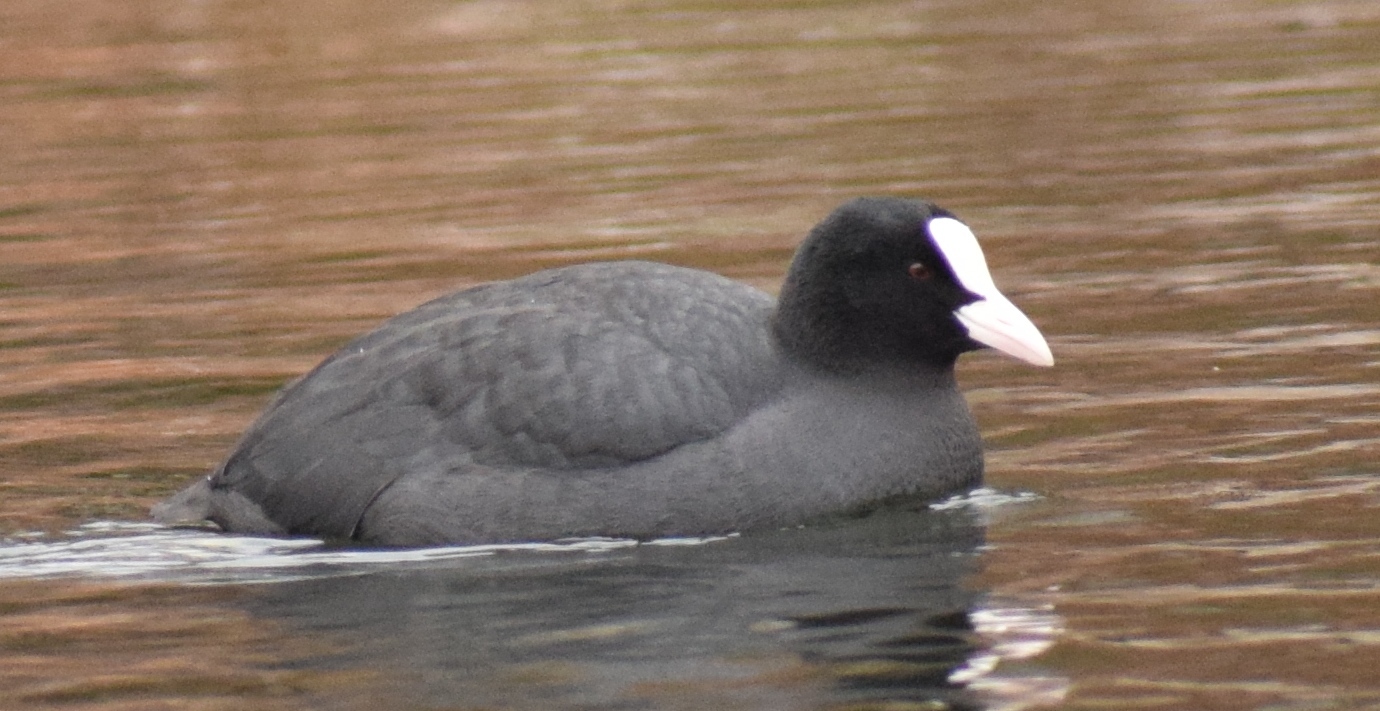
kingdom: Animalia
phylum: Chordata
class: Aves
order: Gruiformes
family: Rallidae
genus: Fulica
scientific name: Fulica atra
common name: Eurasian coot
